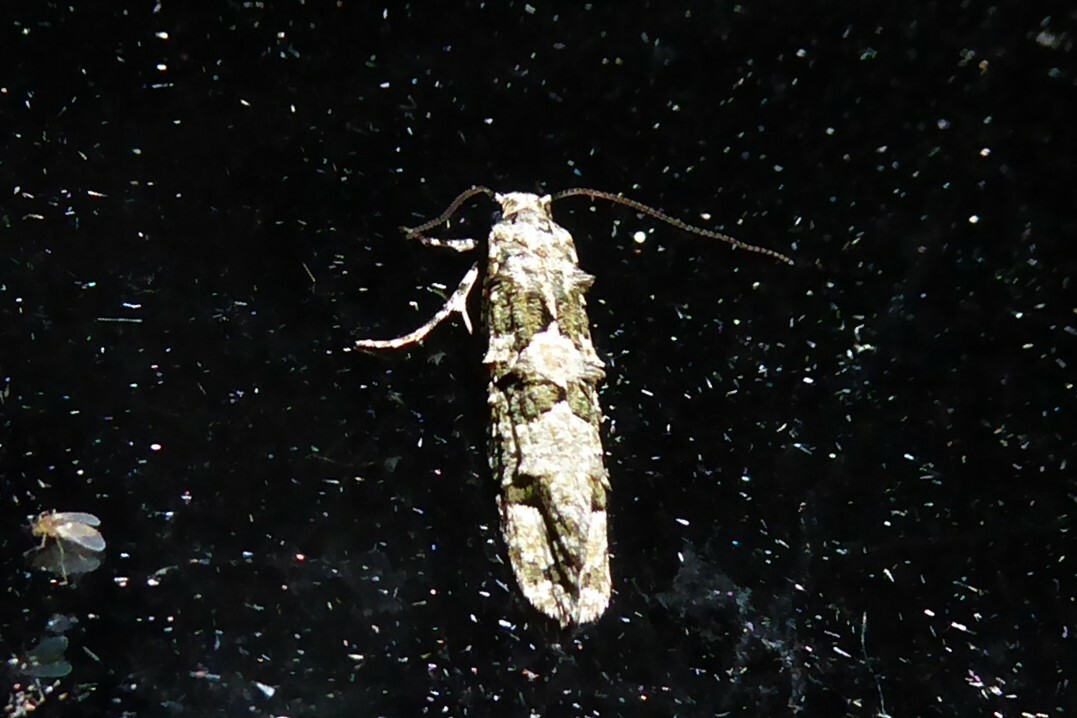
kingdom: Animalia
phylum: Arthropoda
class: Insecta
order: Lepidoptera
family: Tineidae
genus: Lysiphragma
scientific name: Lysiphragma howesii
